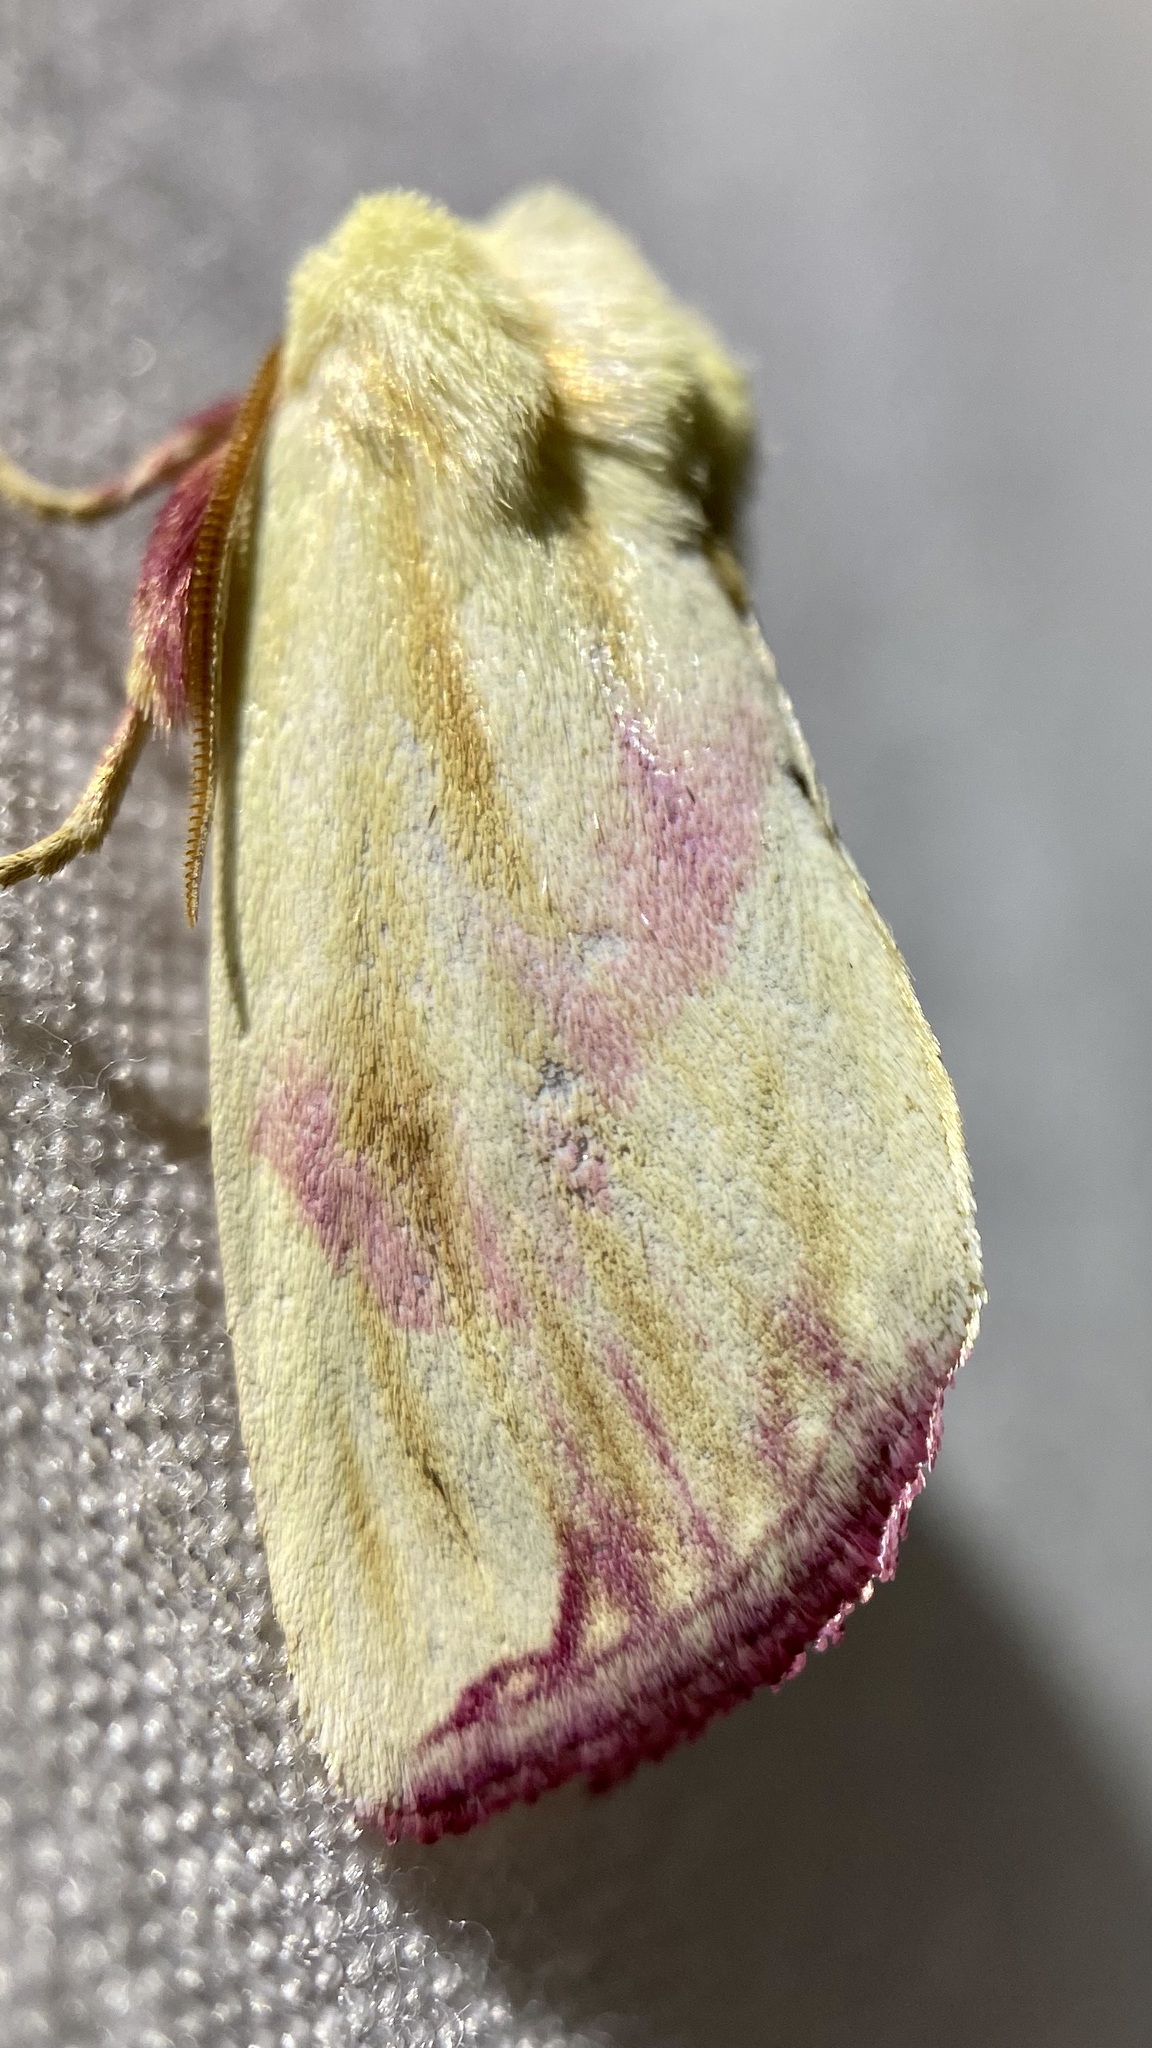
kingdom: Animalia
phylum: Arthropoda
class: Insecta
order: Lepidoptera
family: Noctuidae
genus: Thurberiphaga
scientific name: Thurberiphaga diffusa
